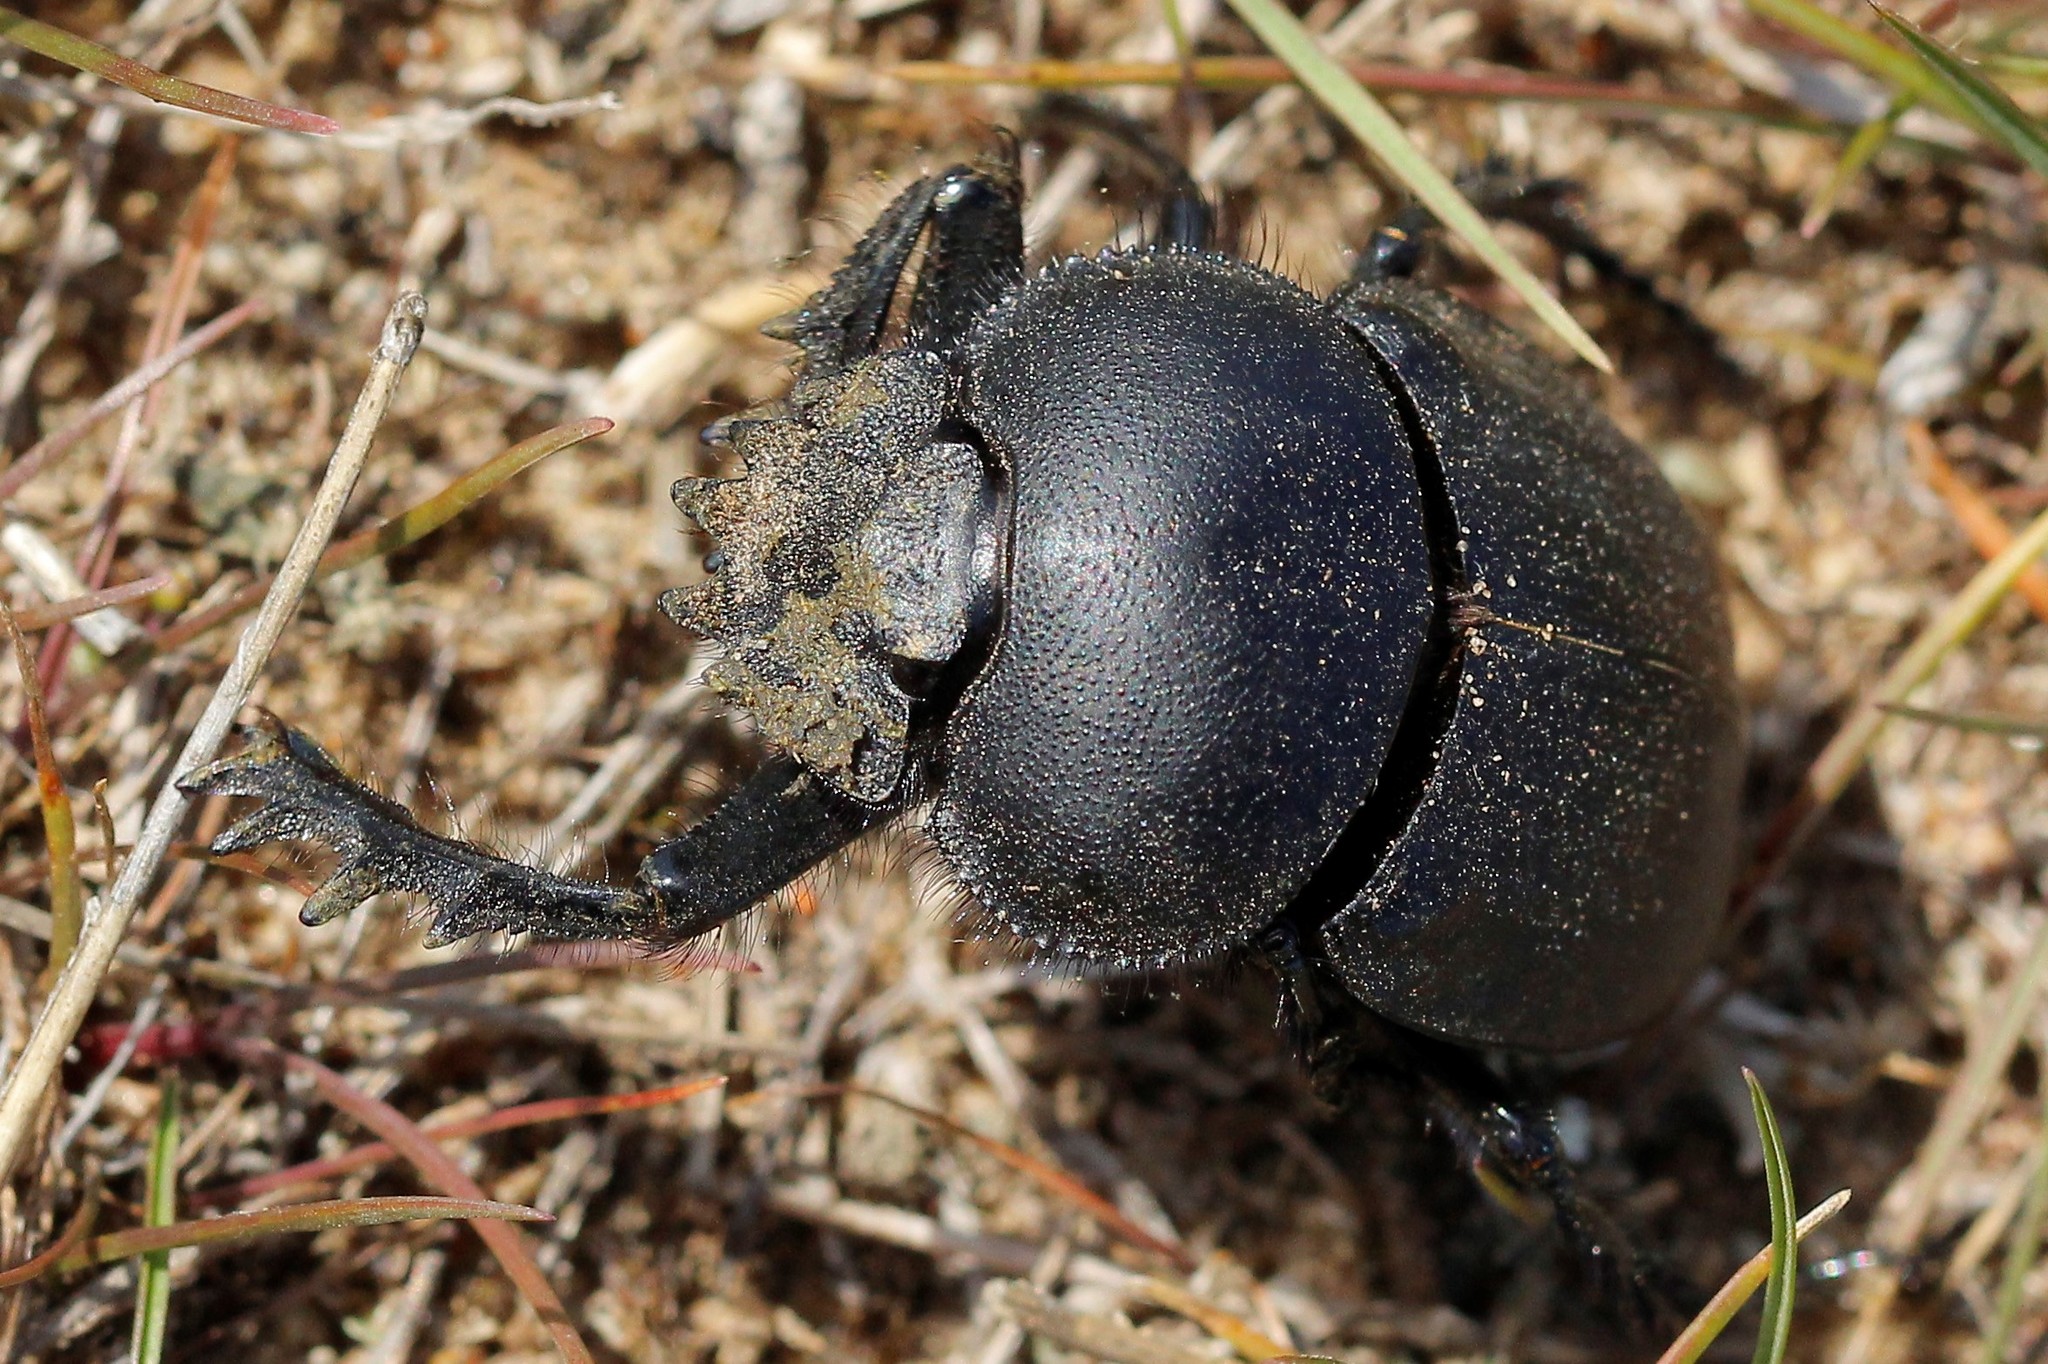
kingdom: Animalia
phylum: Arthropoda
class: Insecta
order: Coleoptera
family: Scarabaeidae
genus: Scarabaeus
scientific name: Scarabaeus typhon
